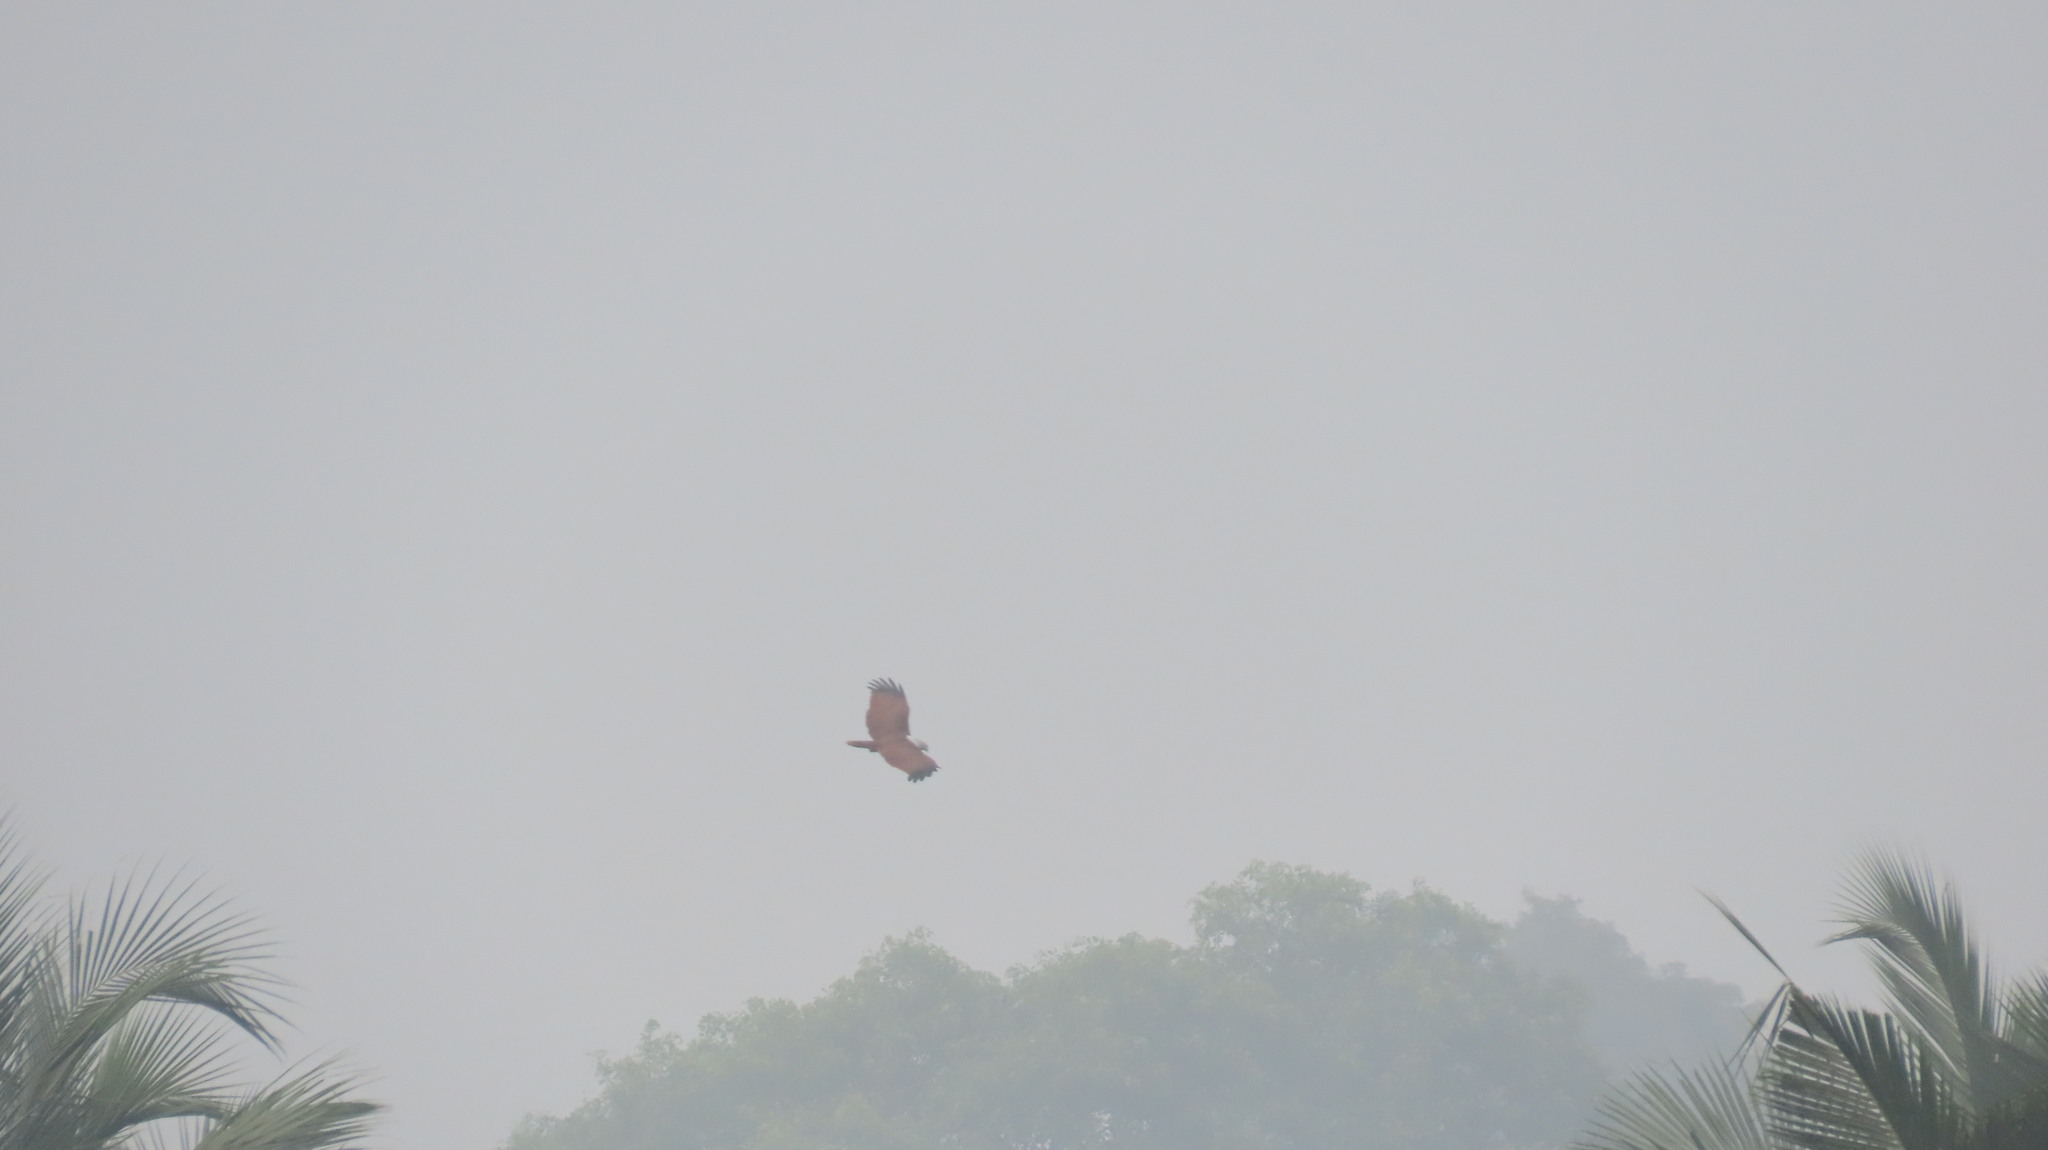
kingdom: Animalia
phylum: Chordata
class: Aves
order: Accipitriformes
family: Accipitridae
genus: Haliastur
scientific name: Haliastur indus
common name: Brahminy kite
